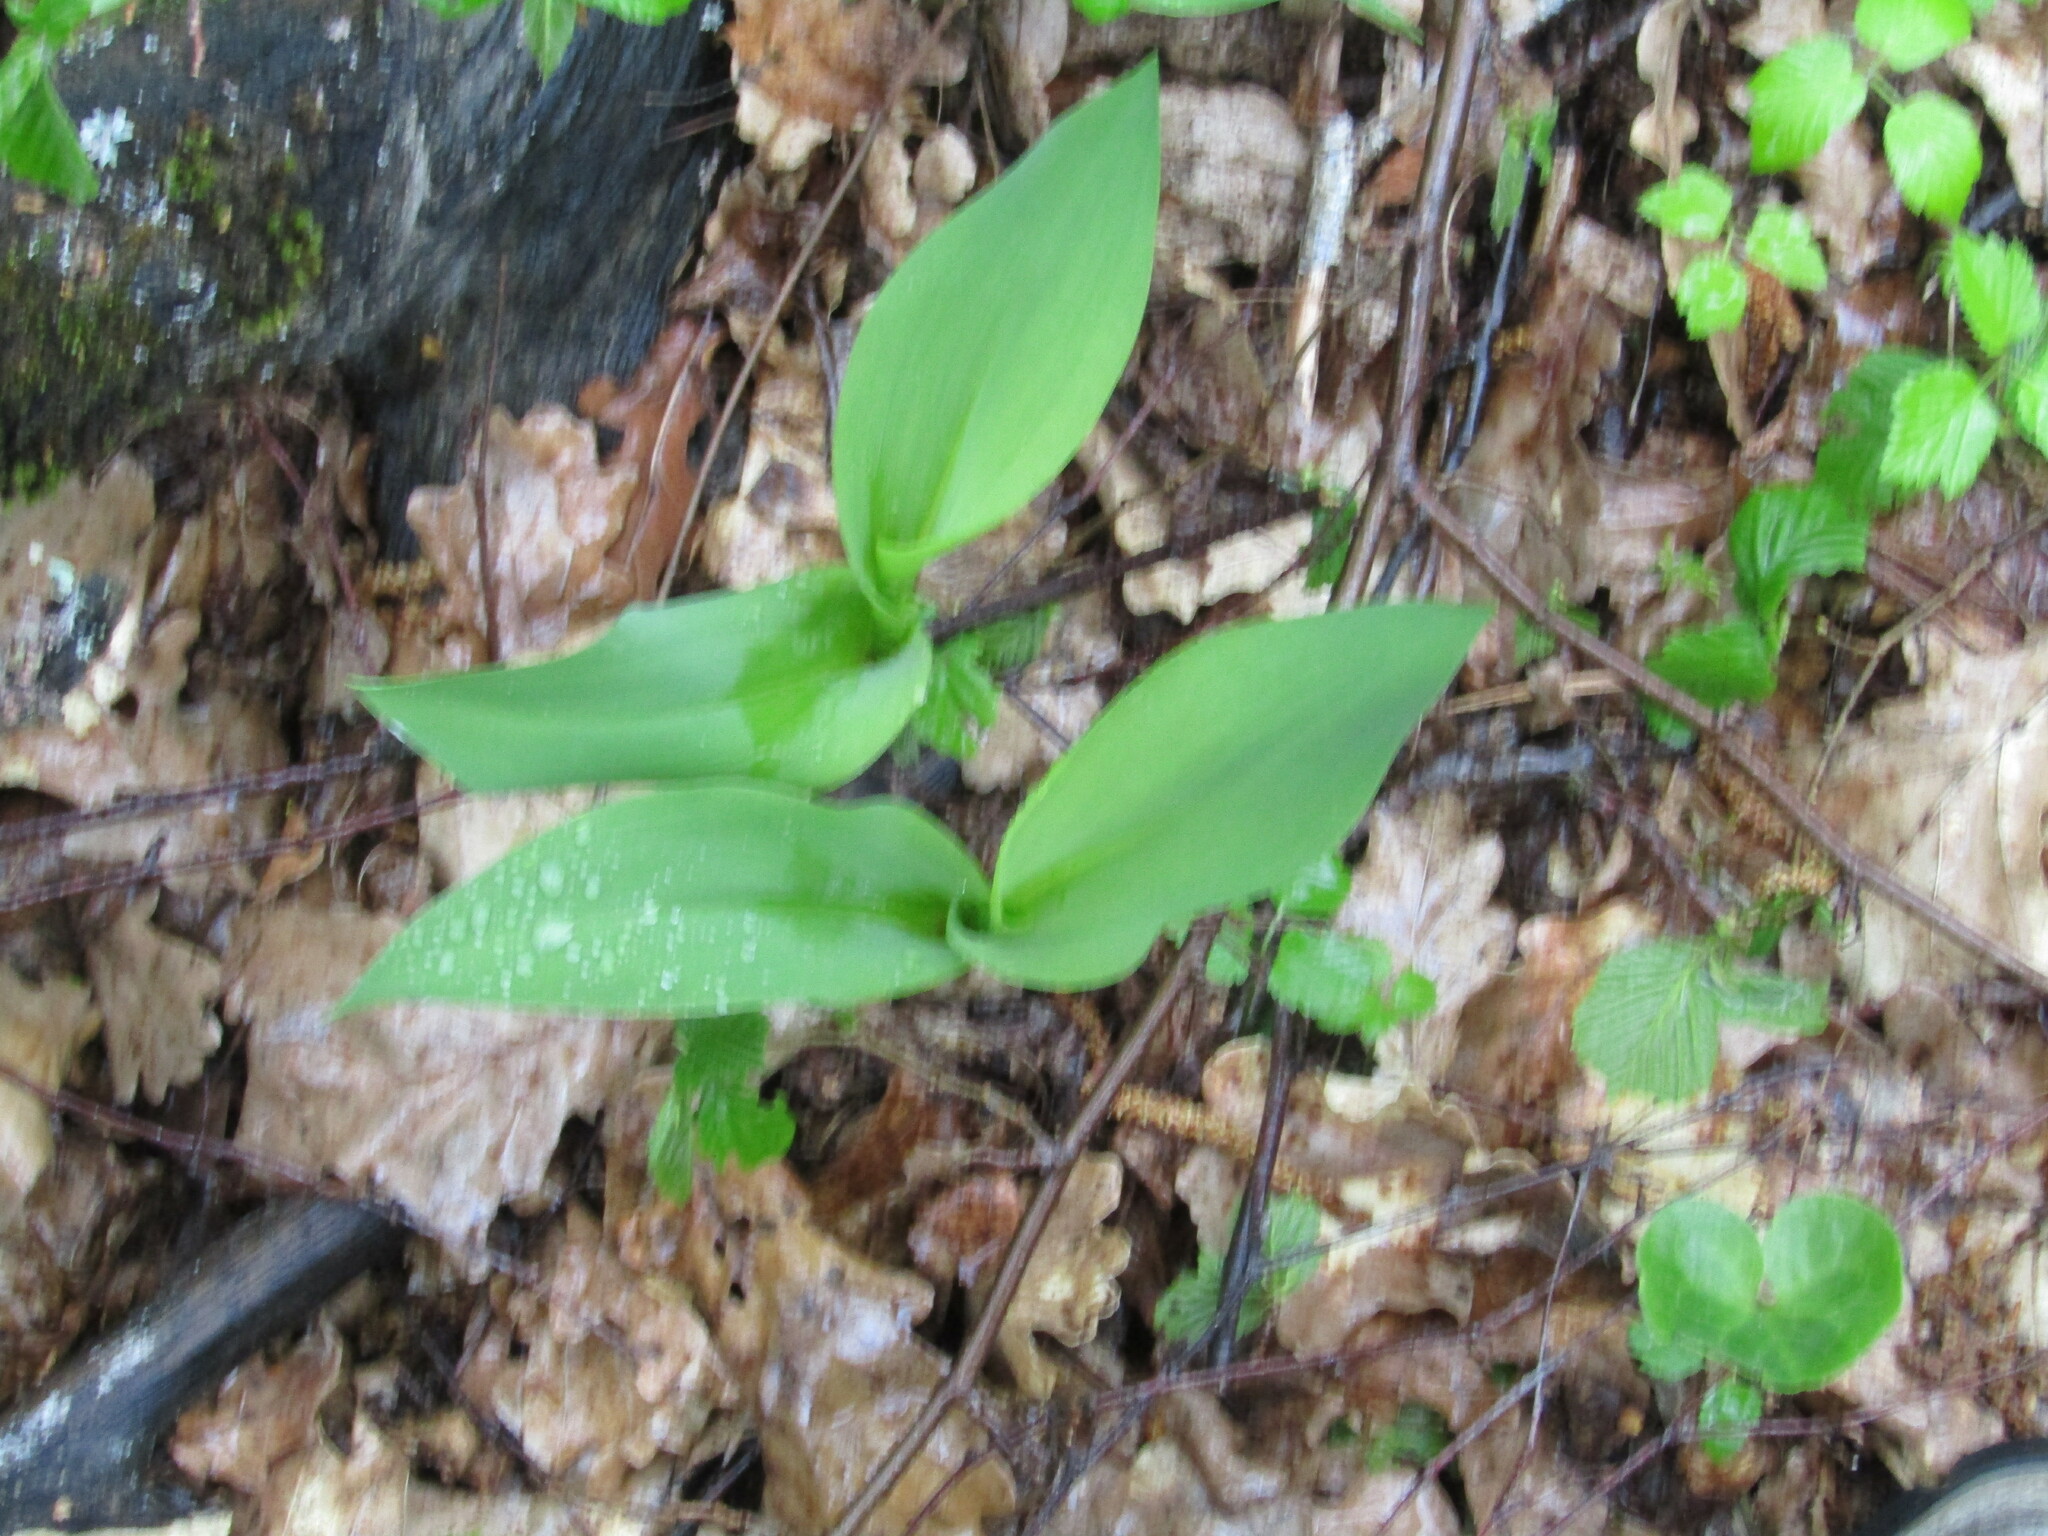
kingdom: Plantae
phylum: Tracheophyta
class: Liliopsida
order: Asparagales
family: Asparagaceae
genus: Convallaria
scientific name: Convallaria majalis
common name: Lily-of-the-valley
